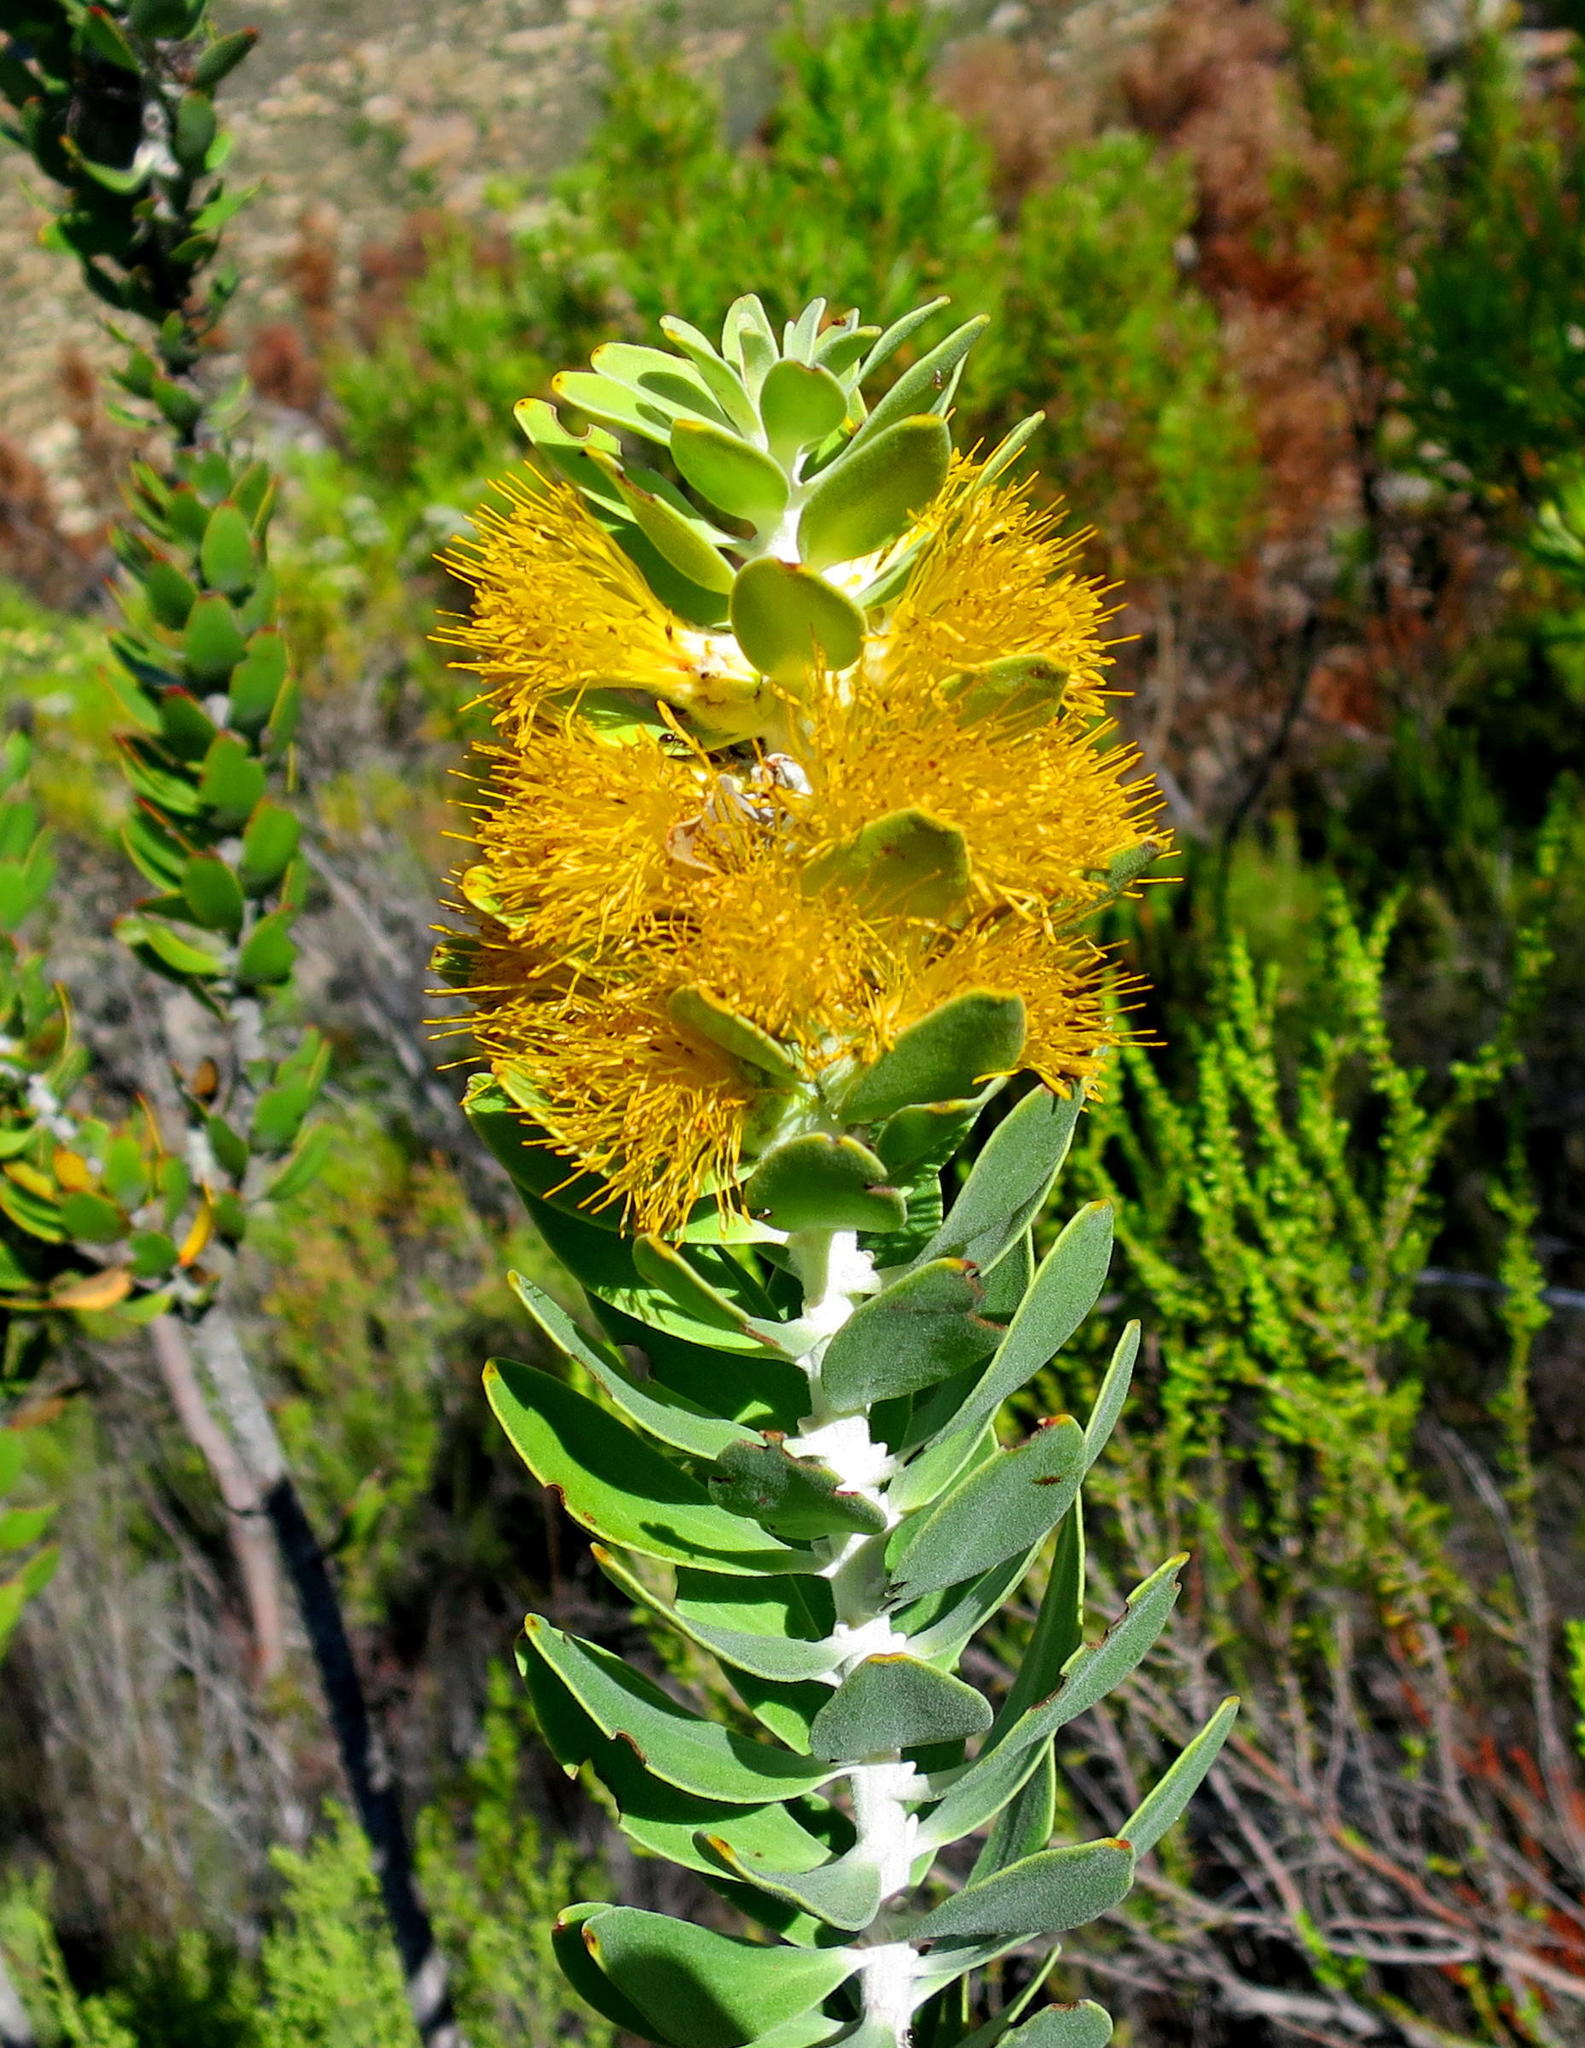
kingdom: Plantae
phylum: Tracheophyta
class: Magnoliopsida
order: Proteales
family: Proteaceae
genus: Mimetes
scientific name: Mimetes chrysanthus
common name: Golden pagoda
